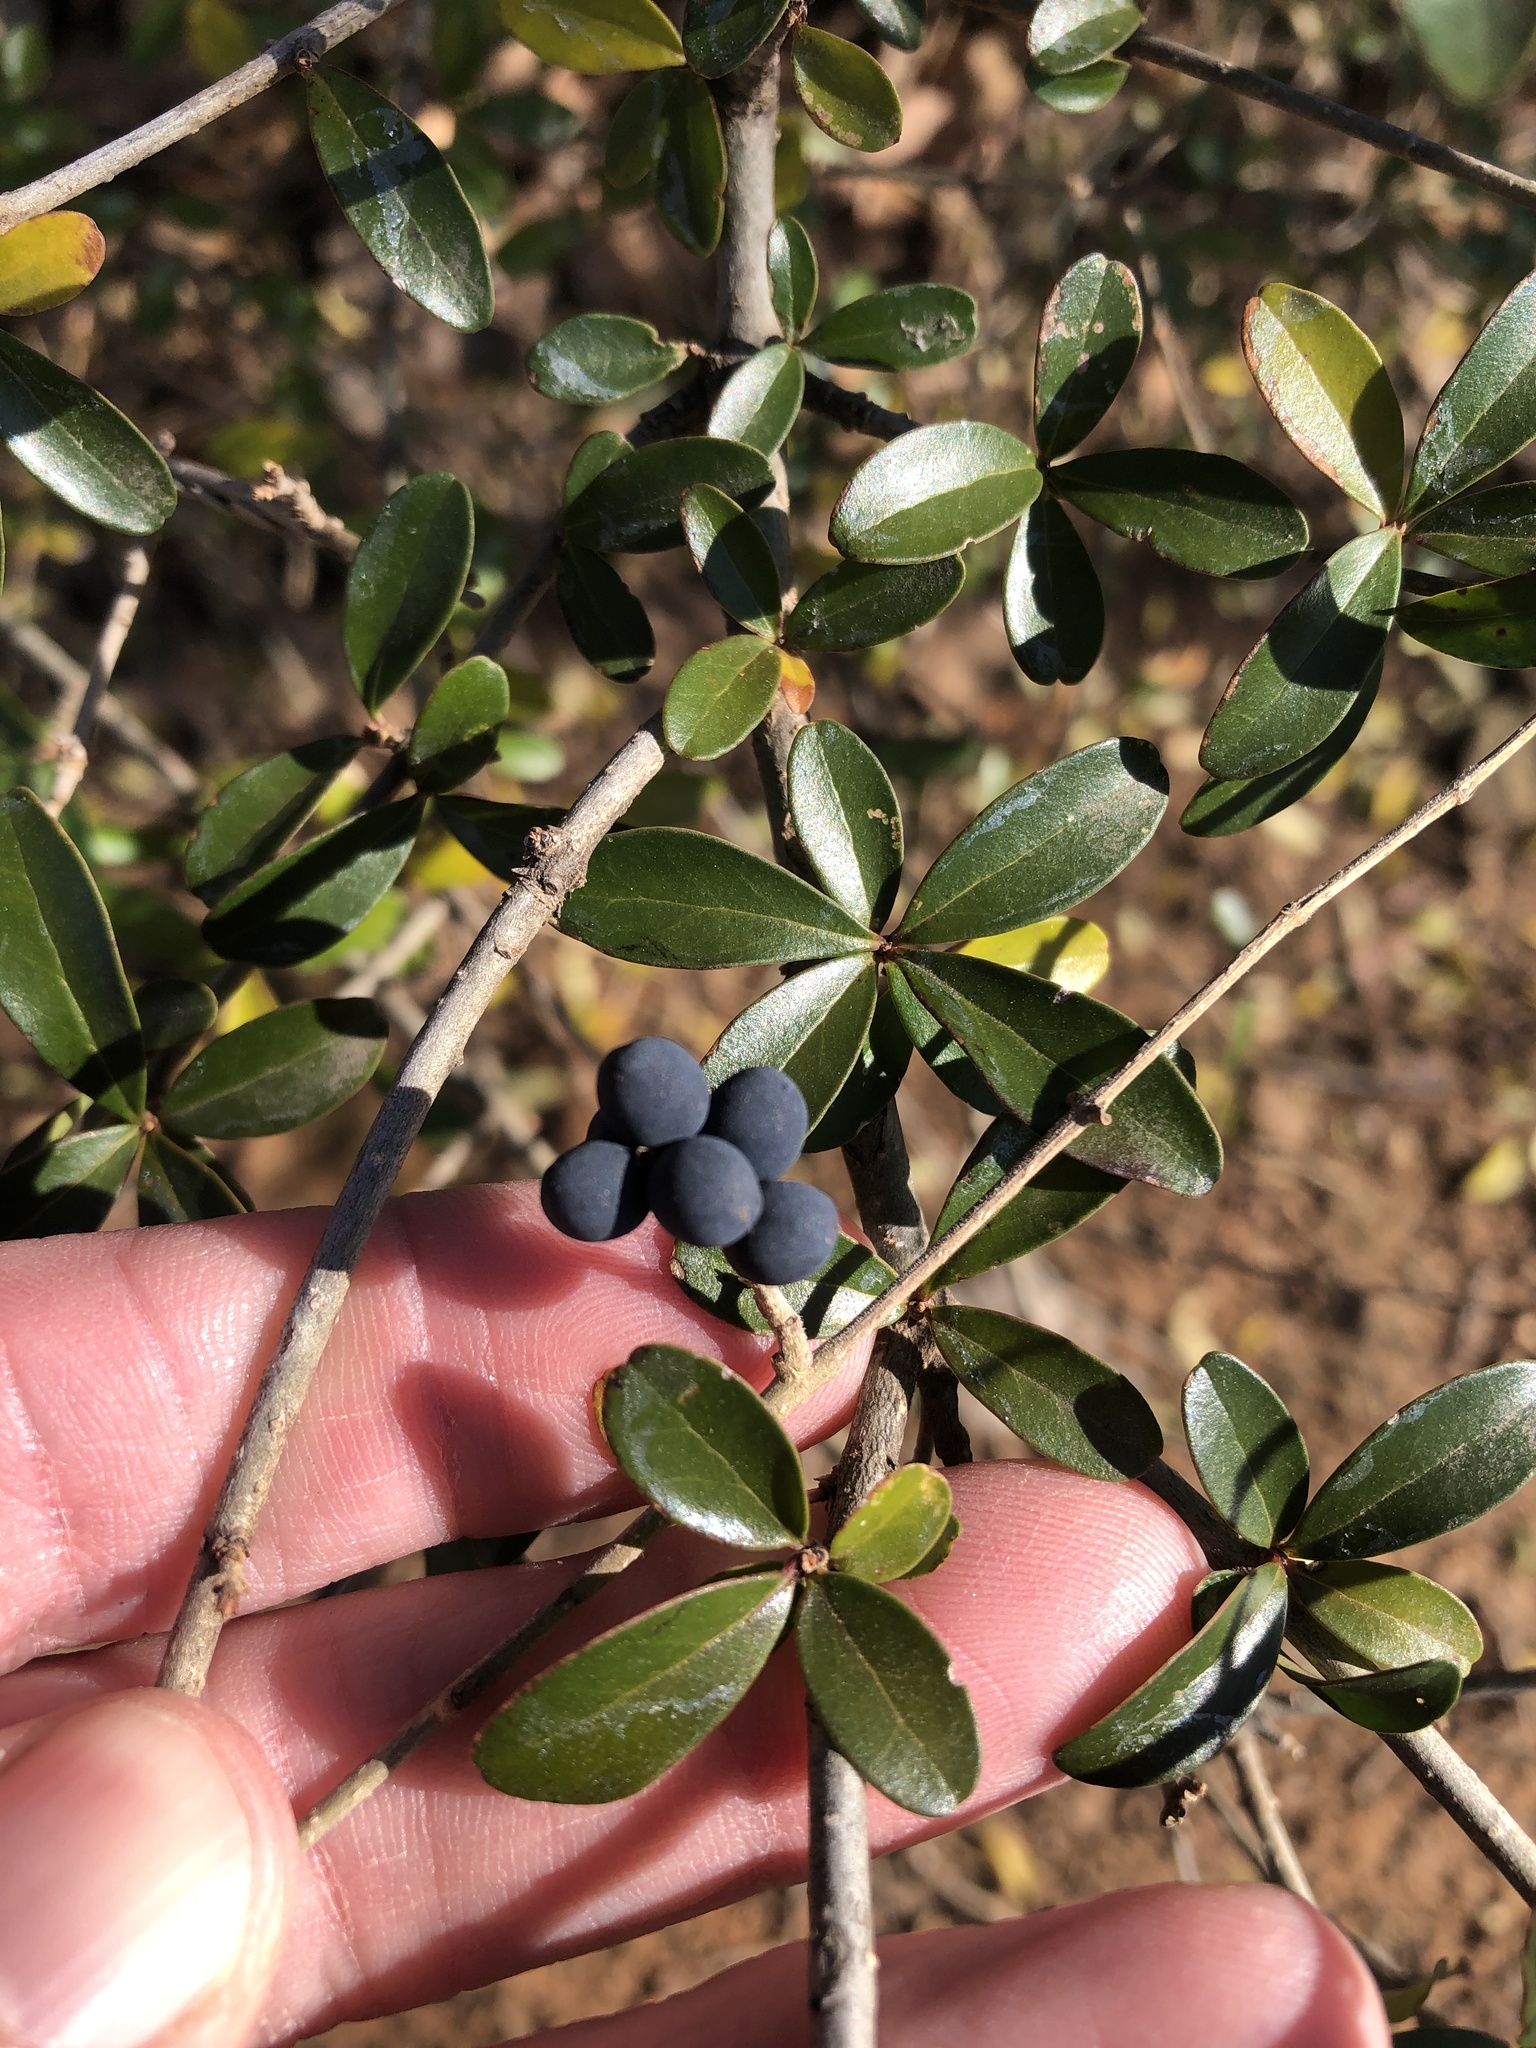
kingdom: Plantae
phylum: Tracheophyta
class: Magnoliopsida
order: Lamiales
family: Oleaceae
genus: Ligustrum
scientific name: Ligustrum quihoui
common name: Waxyleaf privet
